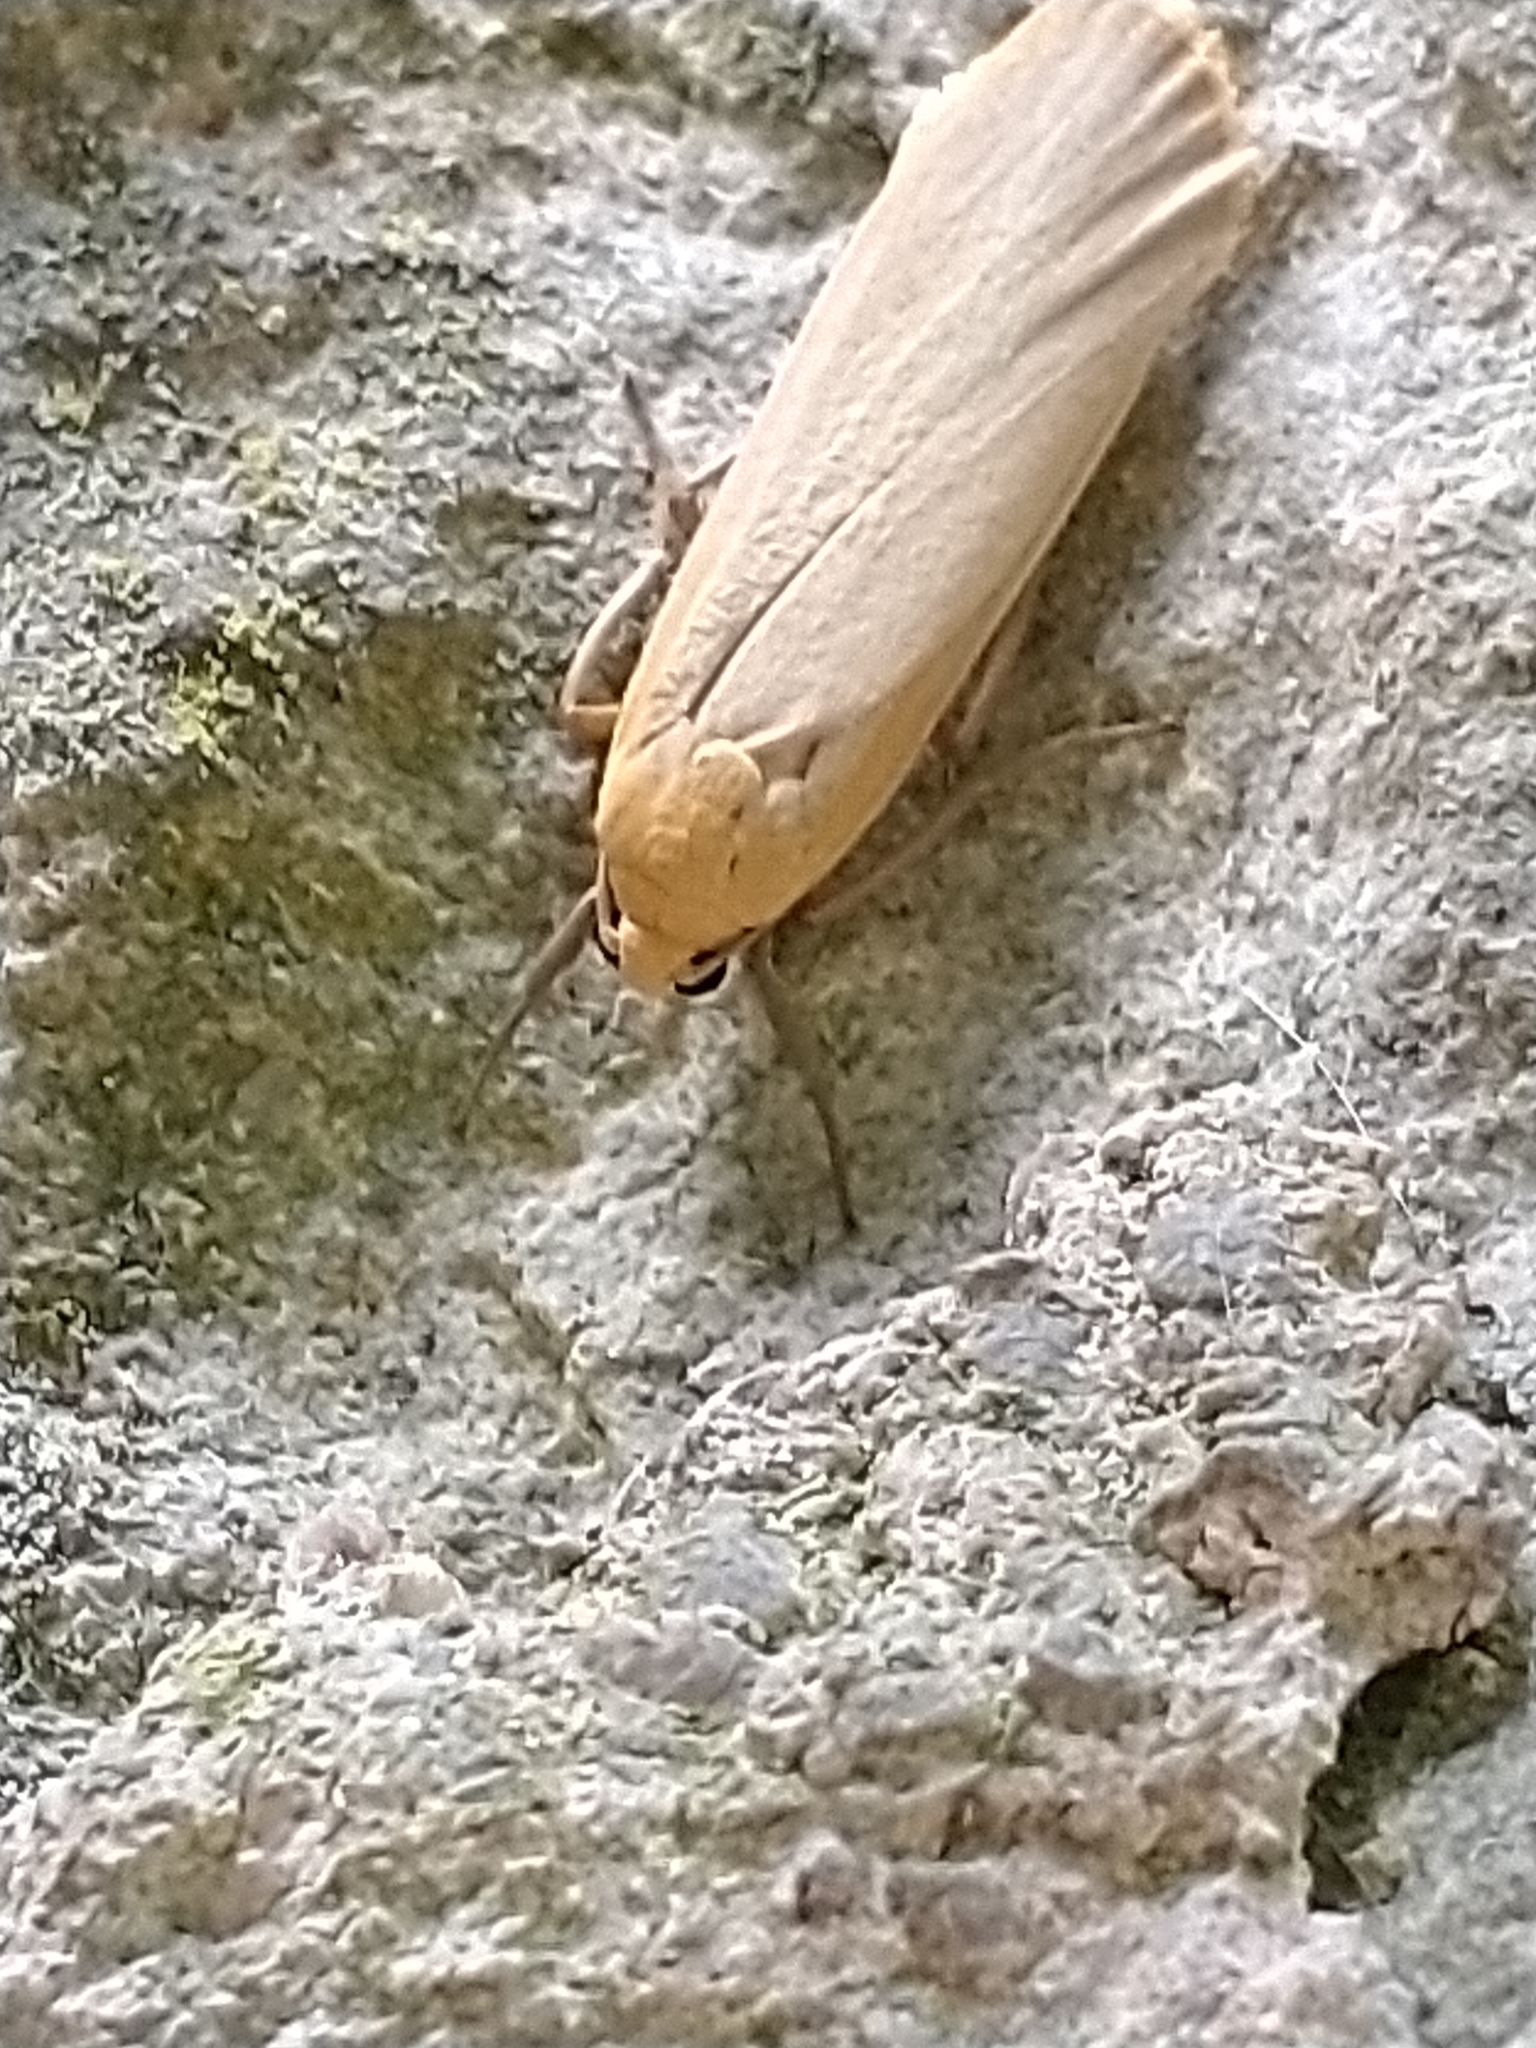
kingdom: Animalia
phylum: Arthropoda
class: Insecta
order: Lepidoptera
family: Erebidae
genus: Katha
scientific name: Katha depressa
